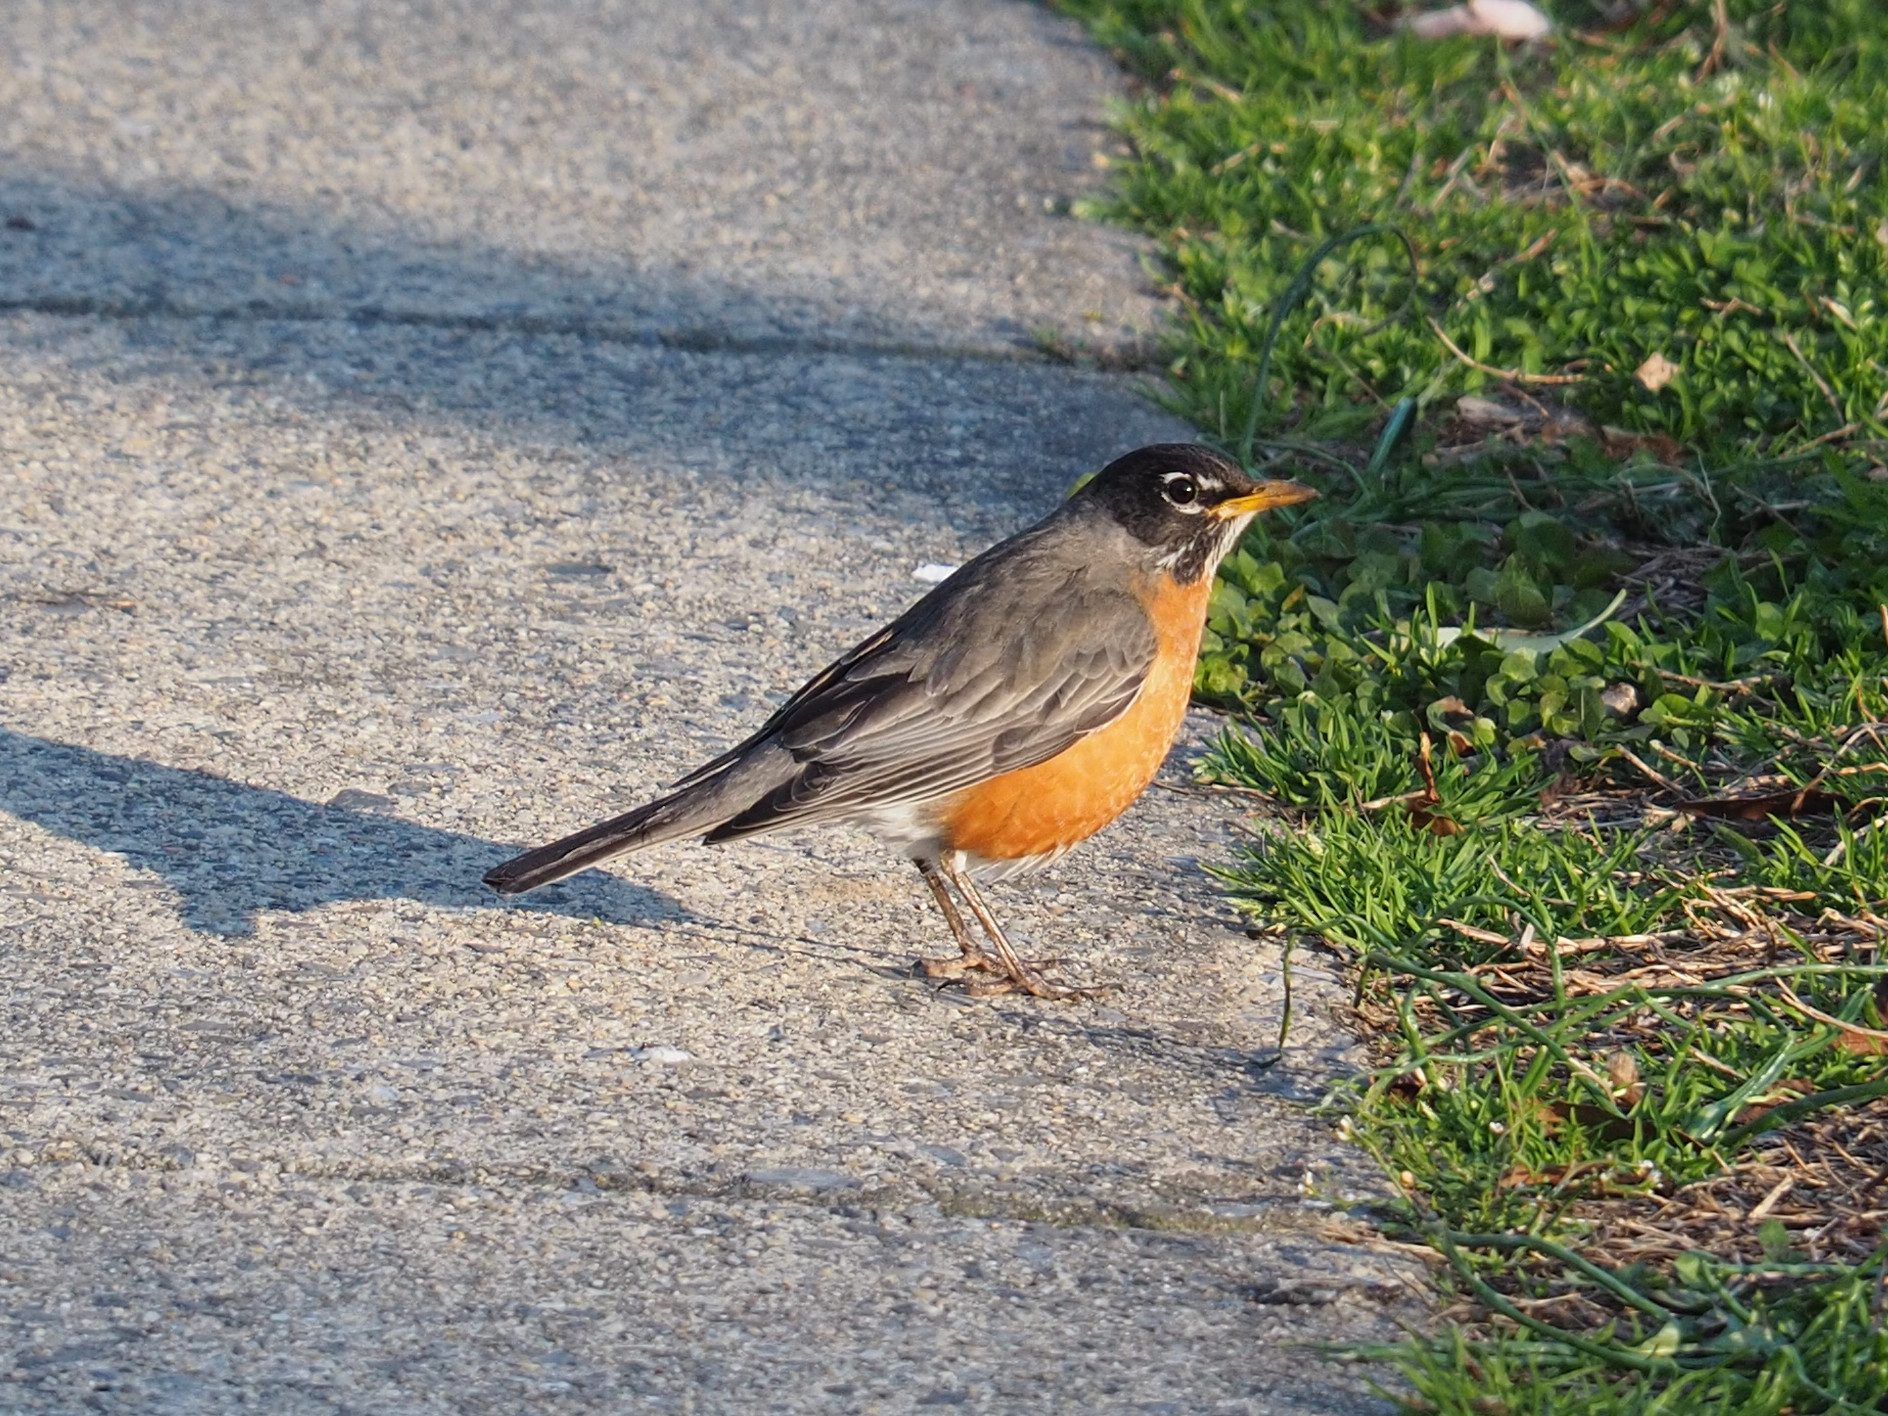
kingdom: Animalia
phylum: Chordata
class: Aves
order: Passeriformes
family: Turdidae
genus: Turdus
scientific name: Turdus migratorius
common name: American robin
